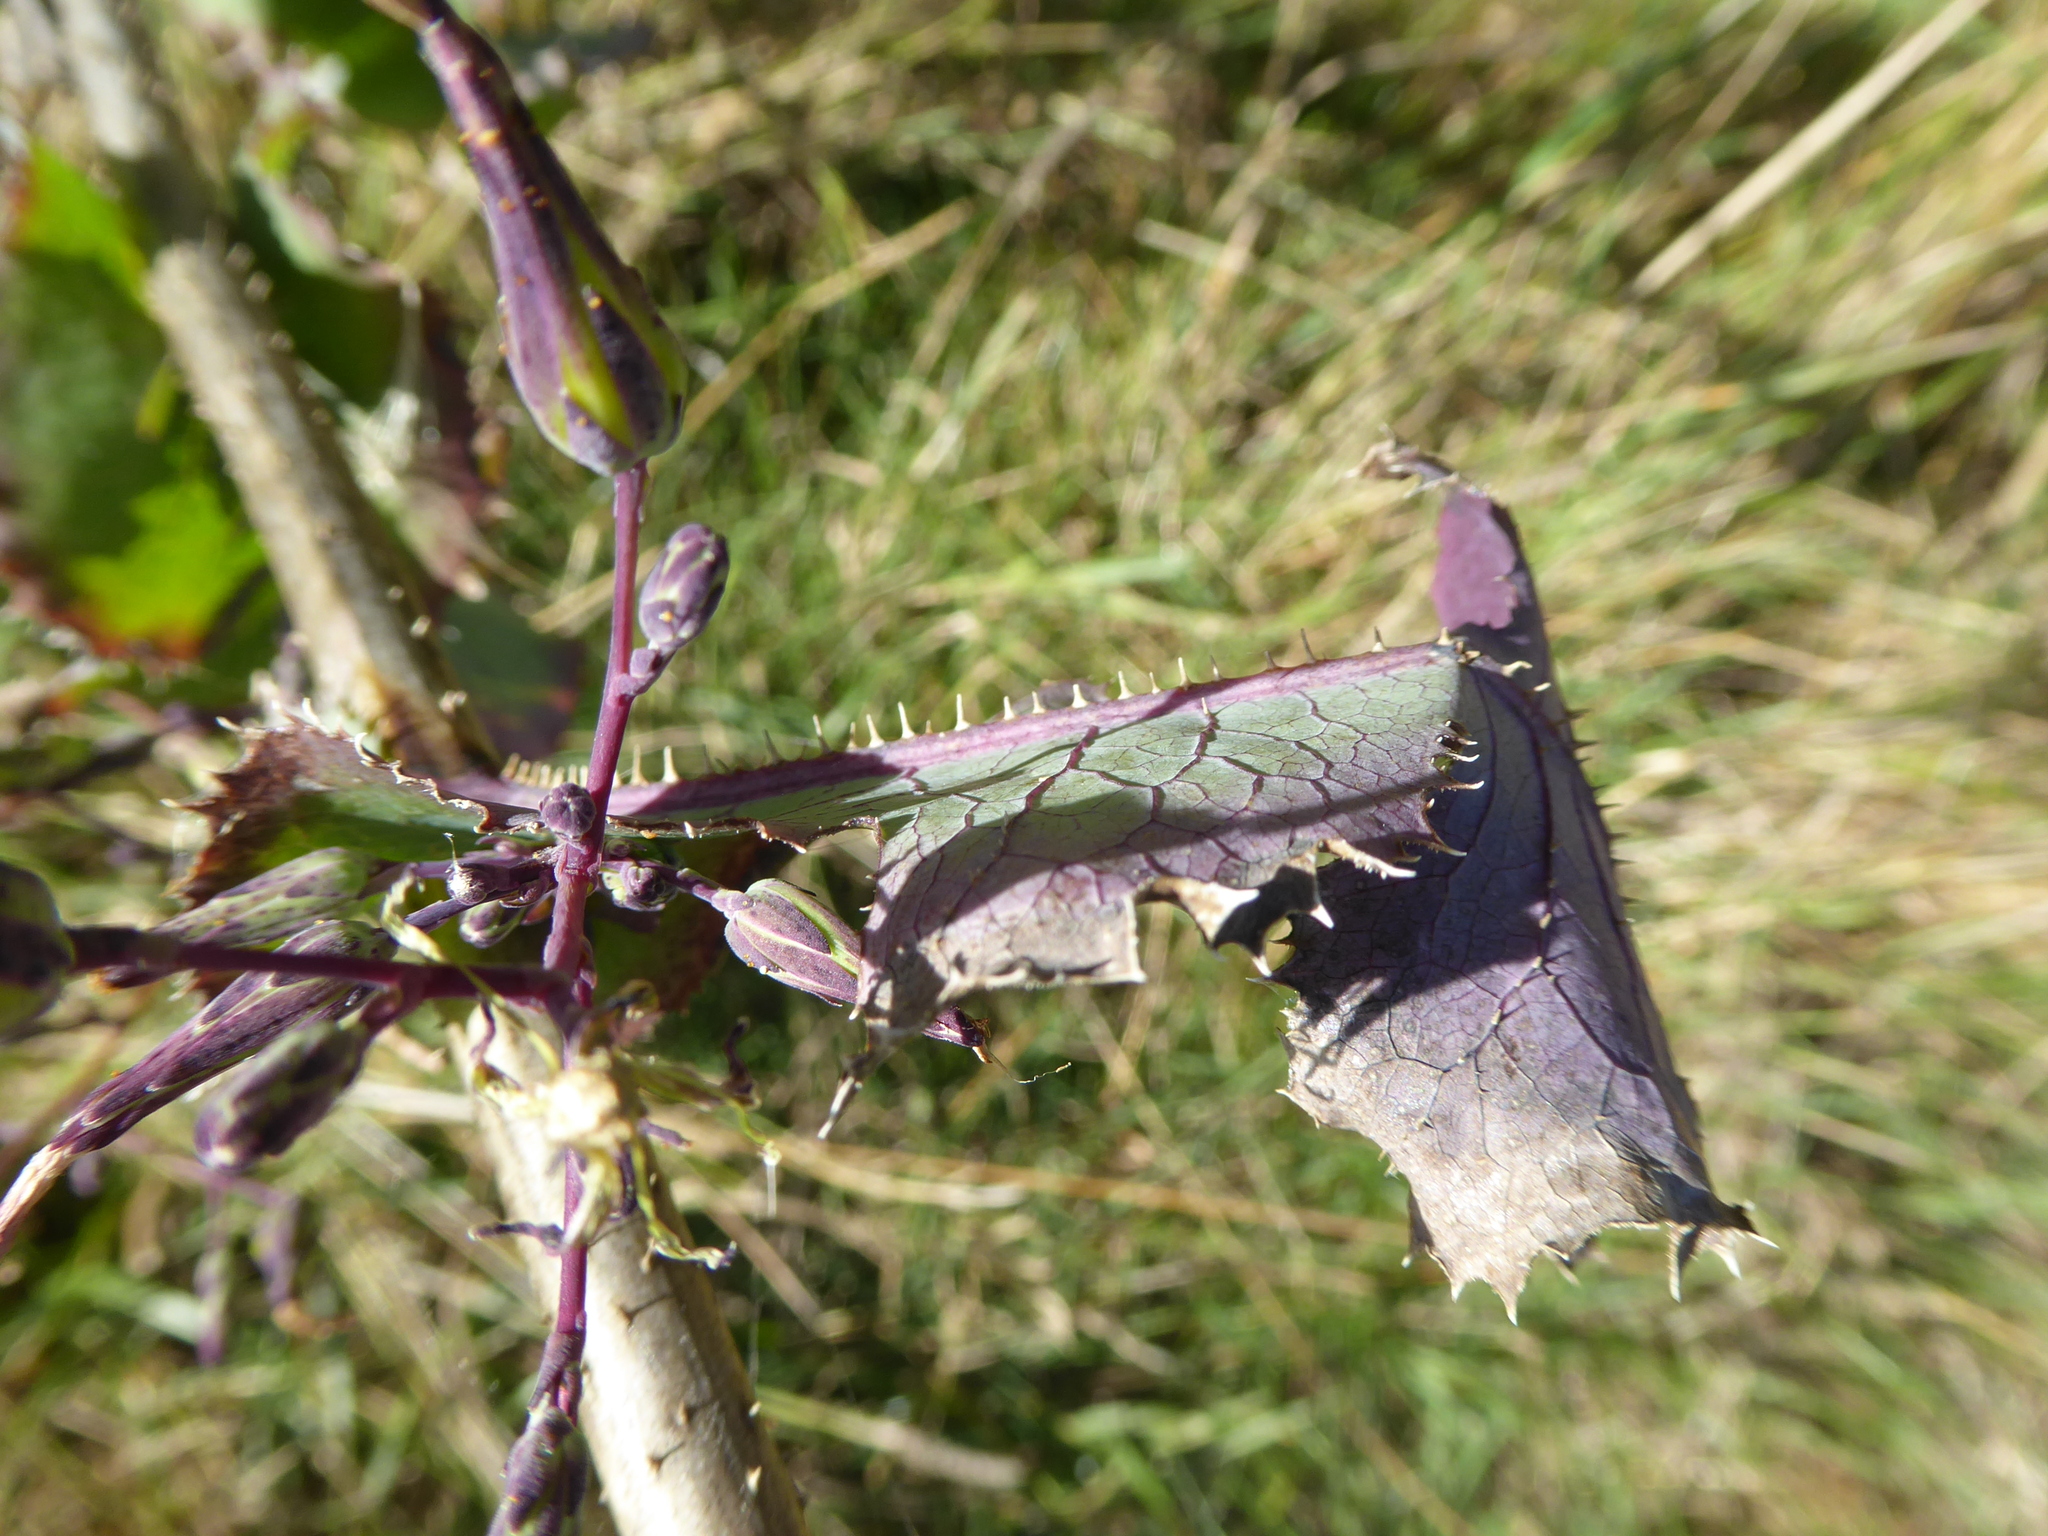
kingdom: Plantae
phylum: Tracheophyta
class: Magnoliopsida
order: Asterales
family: Asteraceae
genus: Lactuca
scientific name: Lactuca serriola
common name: Prickly lettuce
